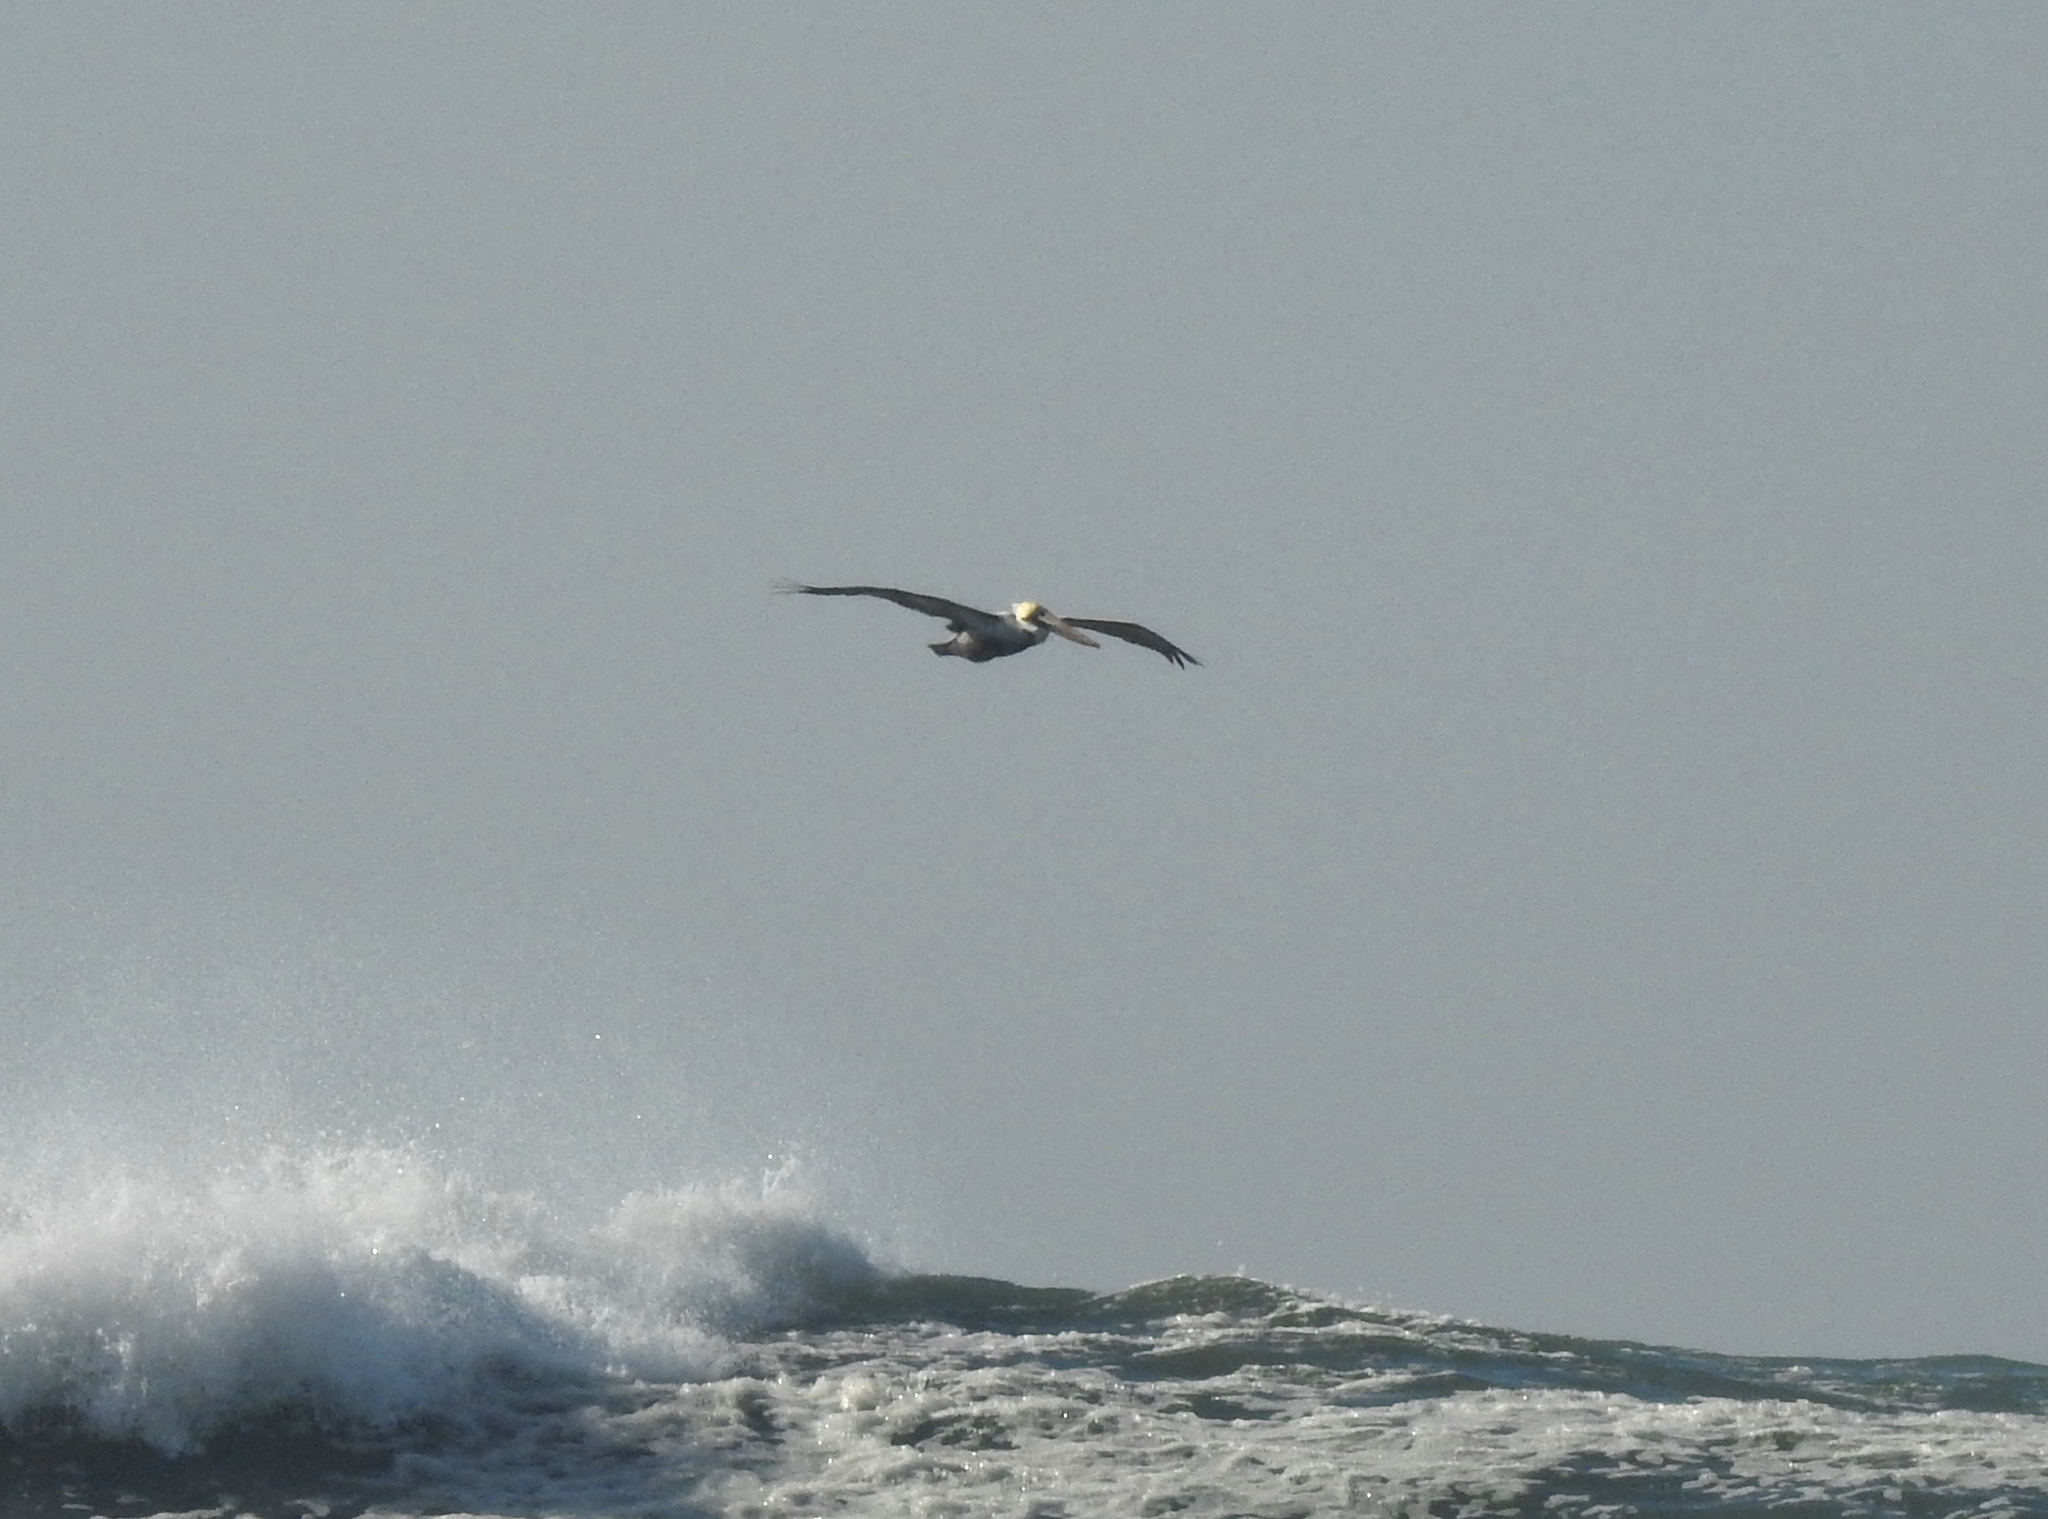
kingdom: Animalia
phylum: Chordata
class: Aves
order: Pelecaniformes
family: Pelecanidae
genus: Pelecanus
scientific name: Pelecanus occidentalis
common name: Brown pelican
